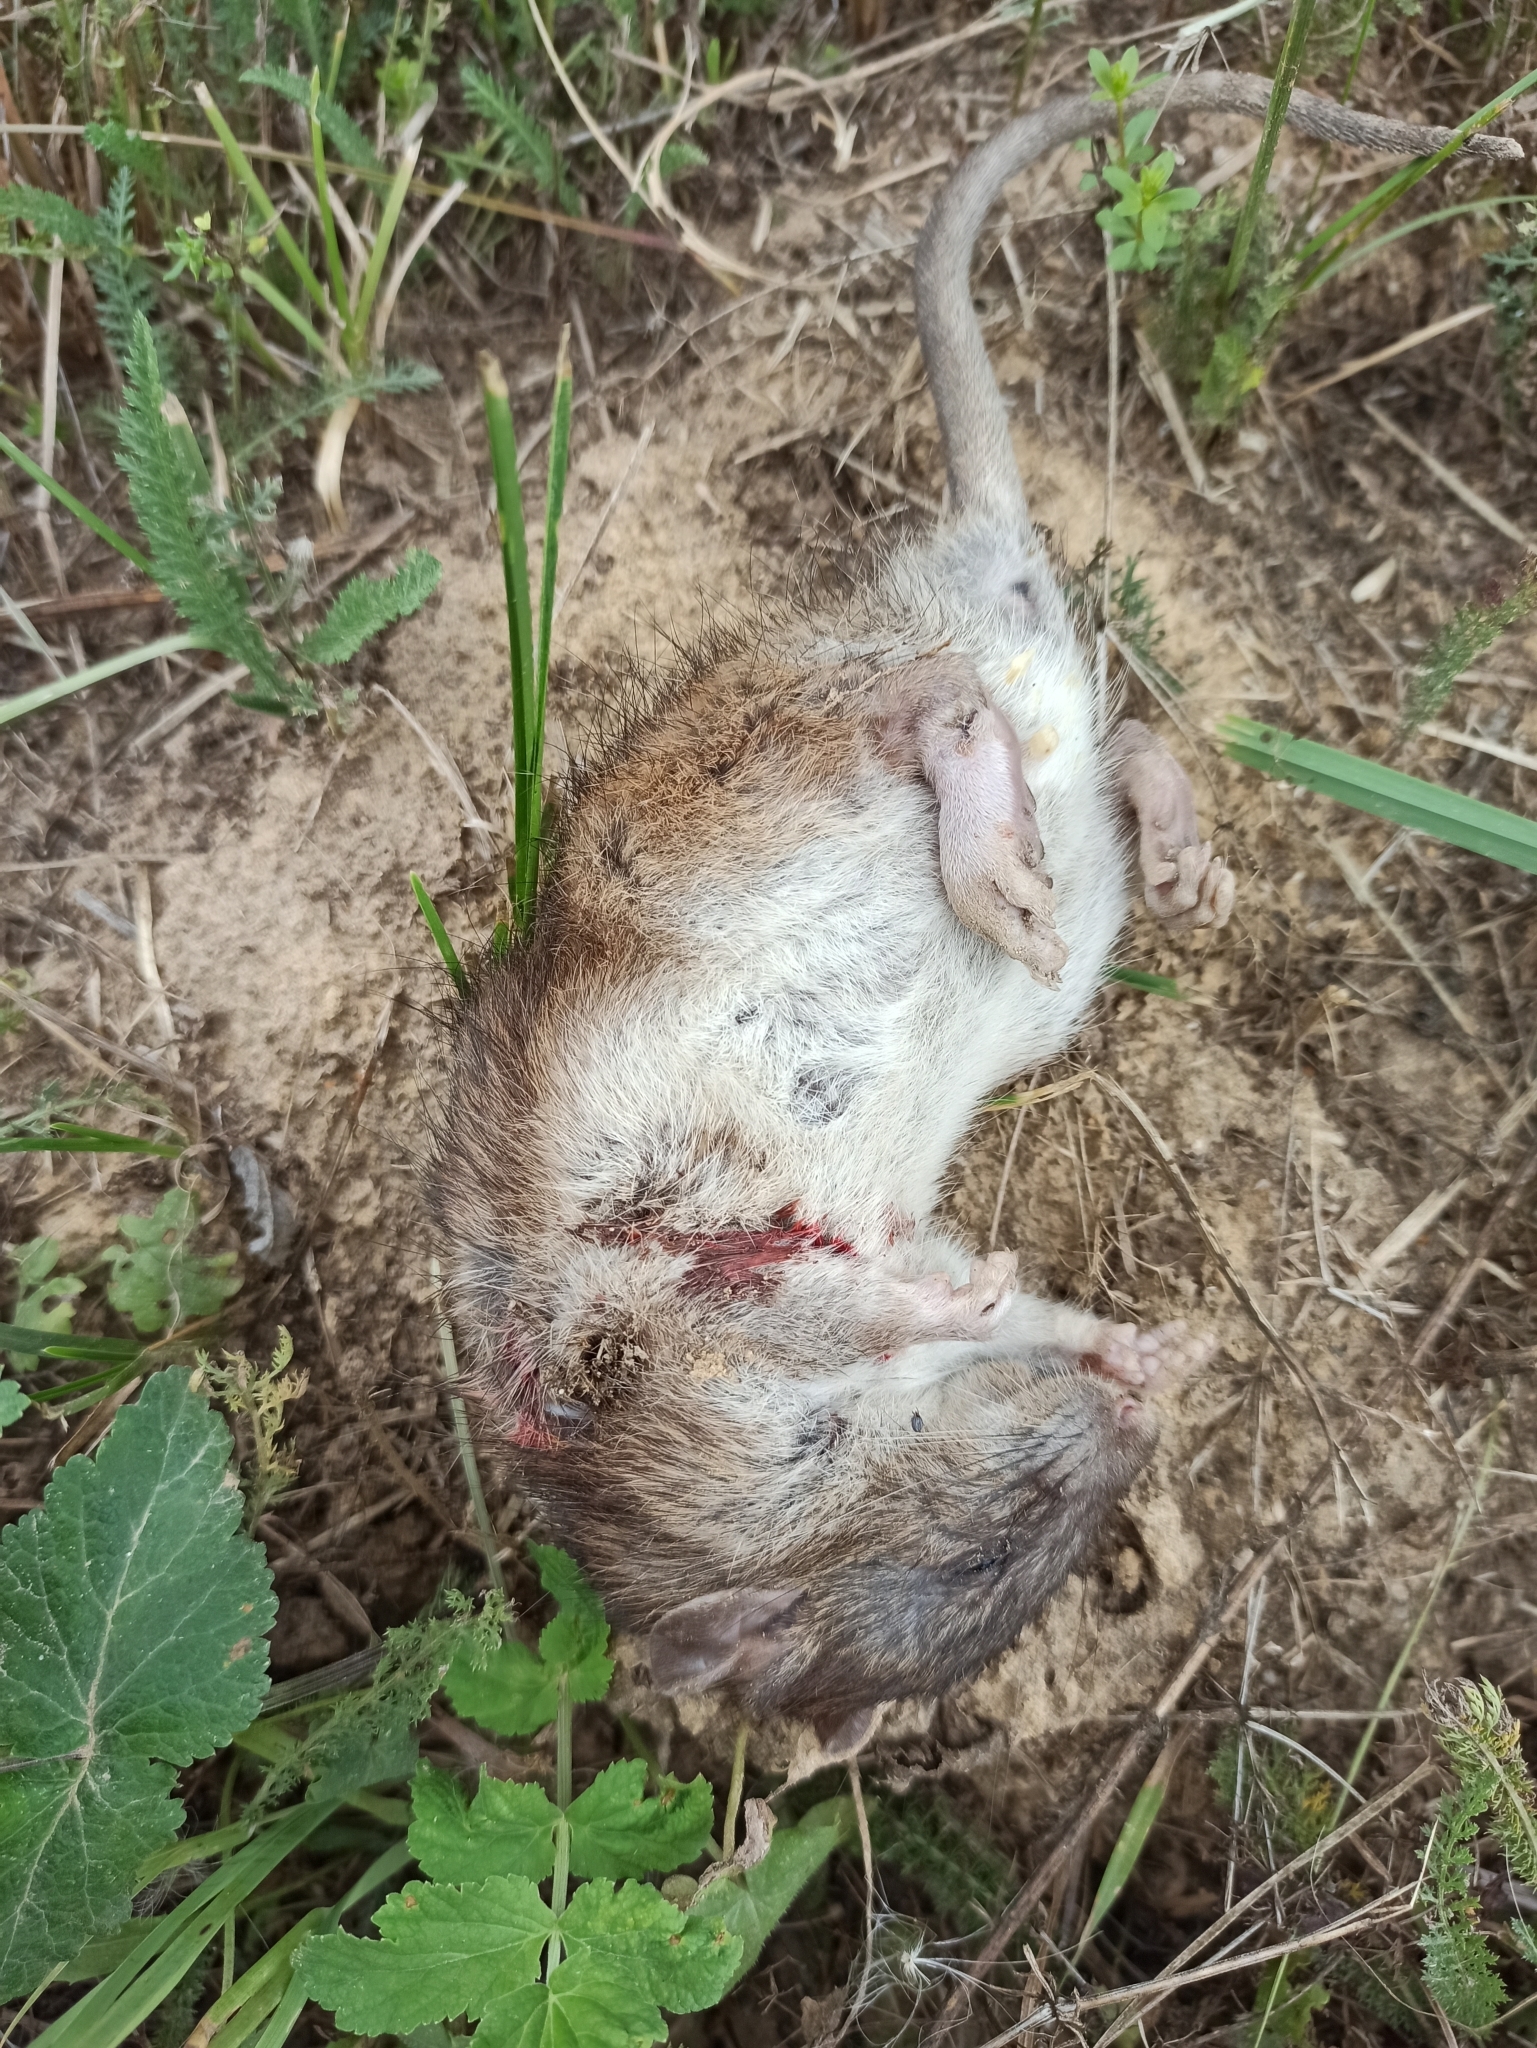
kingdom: Animalia
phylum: Chordata
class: Mammalia
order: Rodentia
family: Muridae
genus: Rattus
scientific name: Rattus norvegicus
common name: Brown rat
